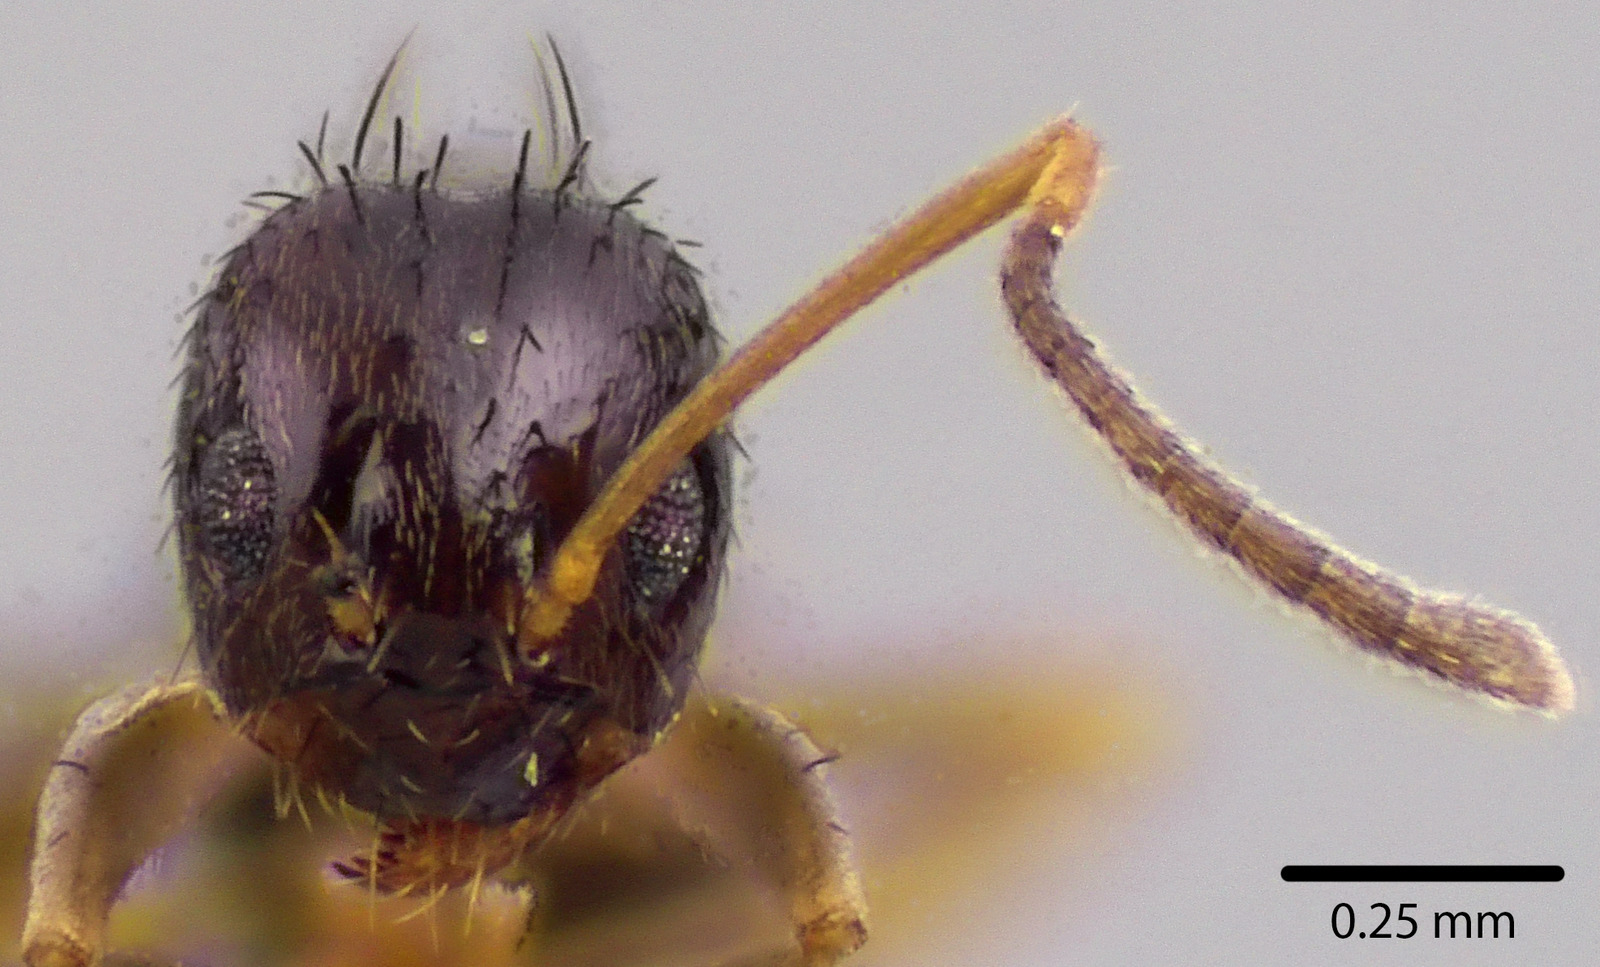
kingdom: Animalia
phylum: Arthropoda
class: Insecta
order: Hymenoptera
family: Formicidae
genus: Nylanderia
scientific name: Nylanderia parvula
